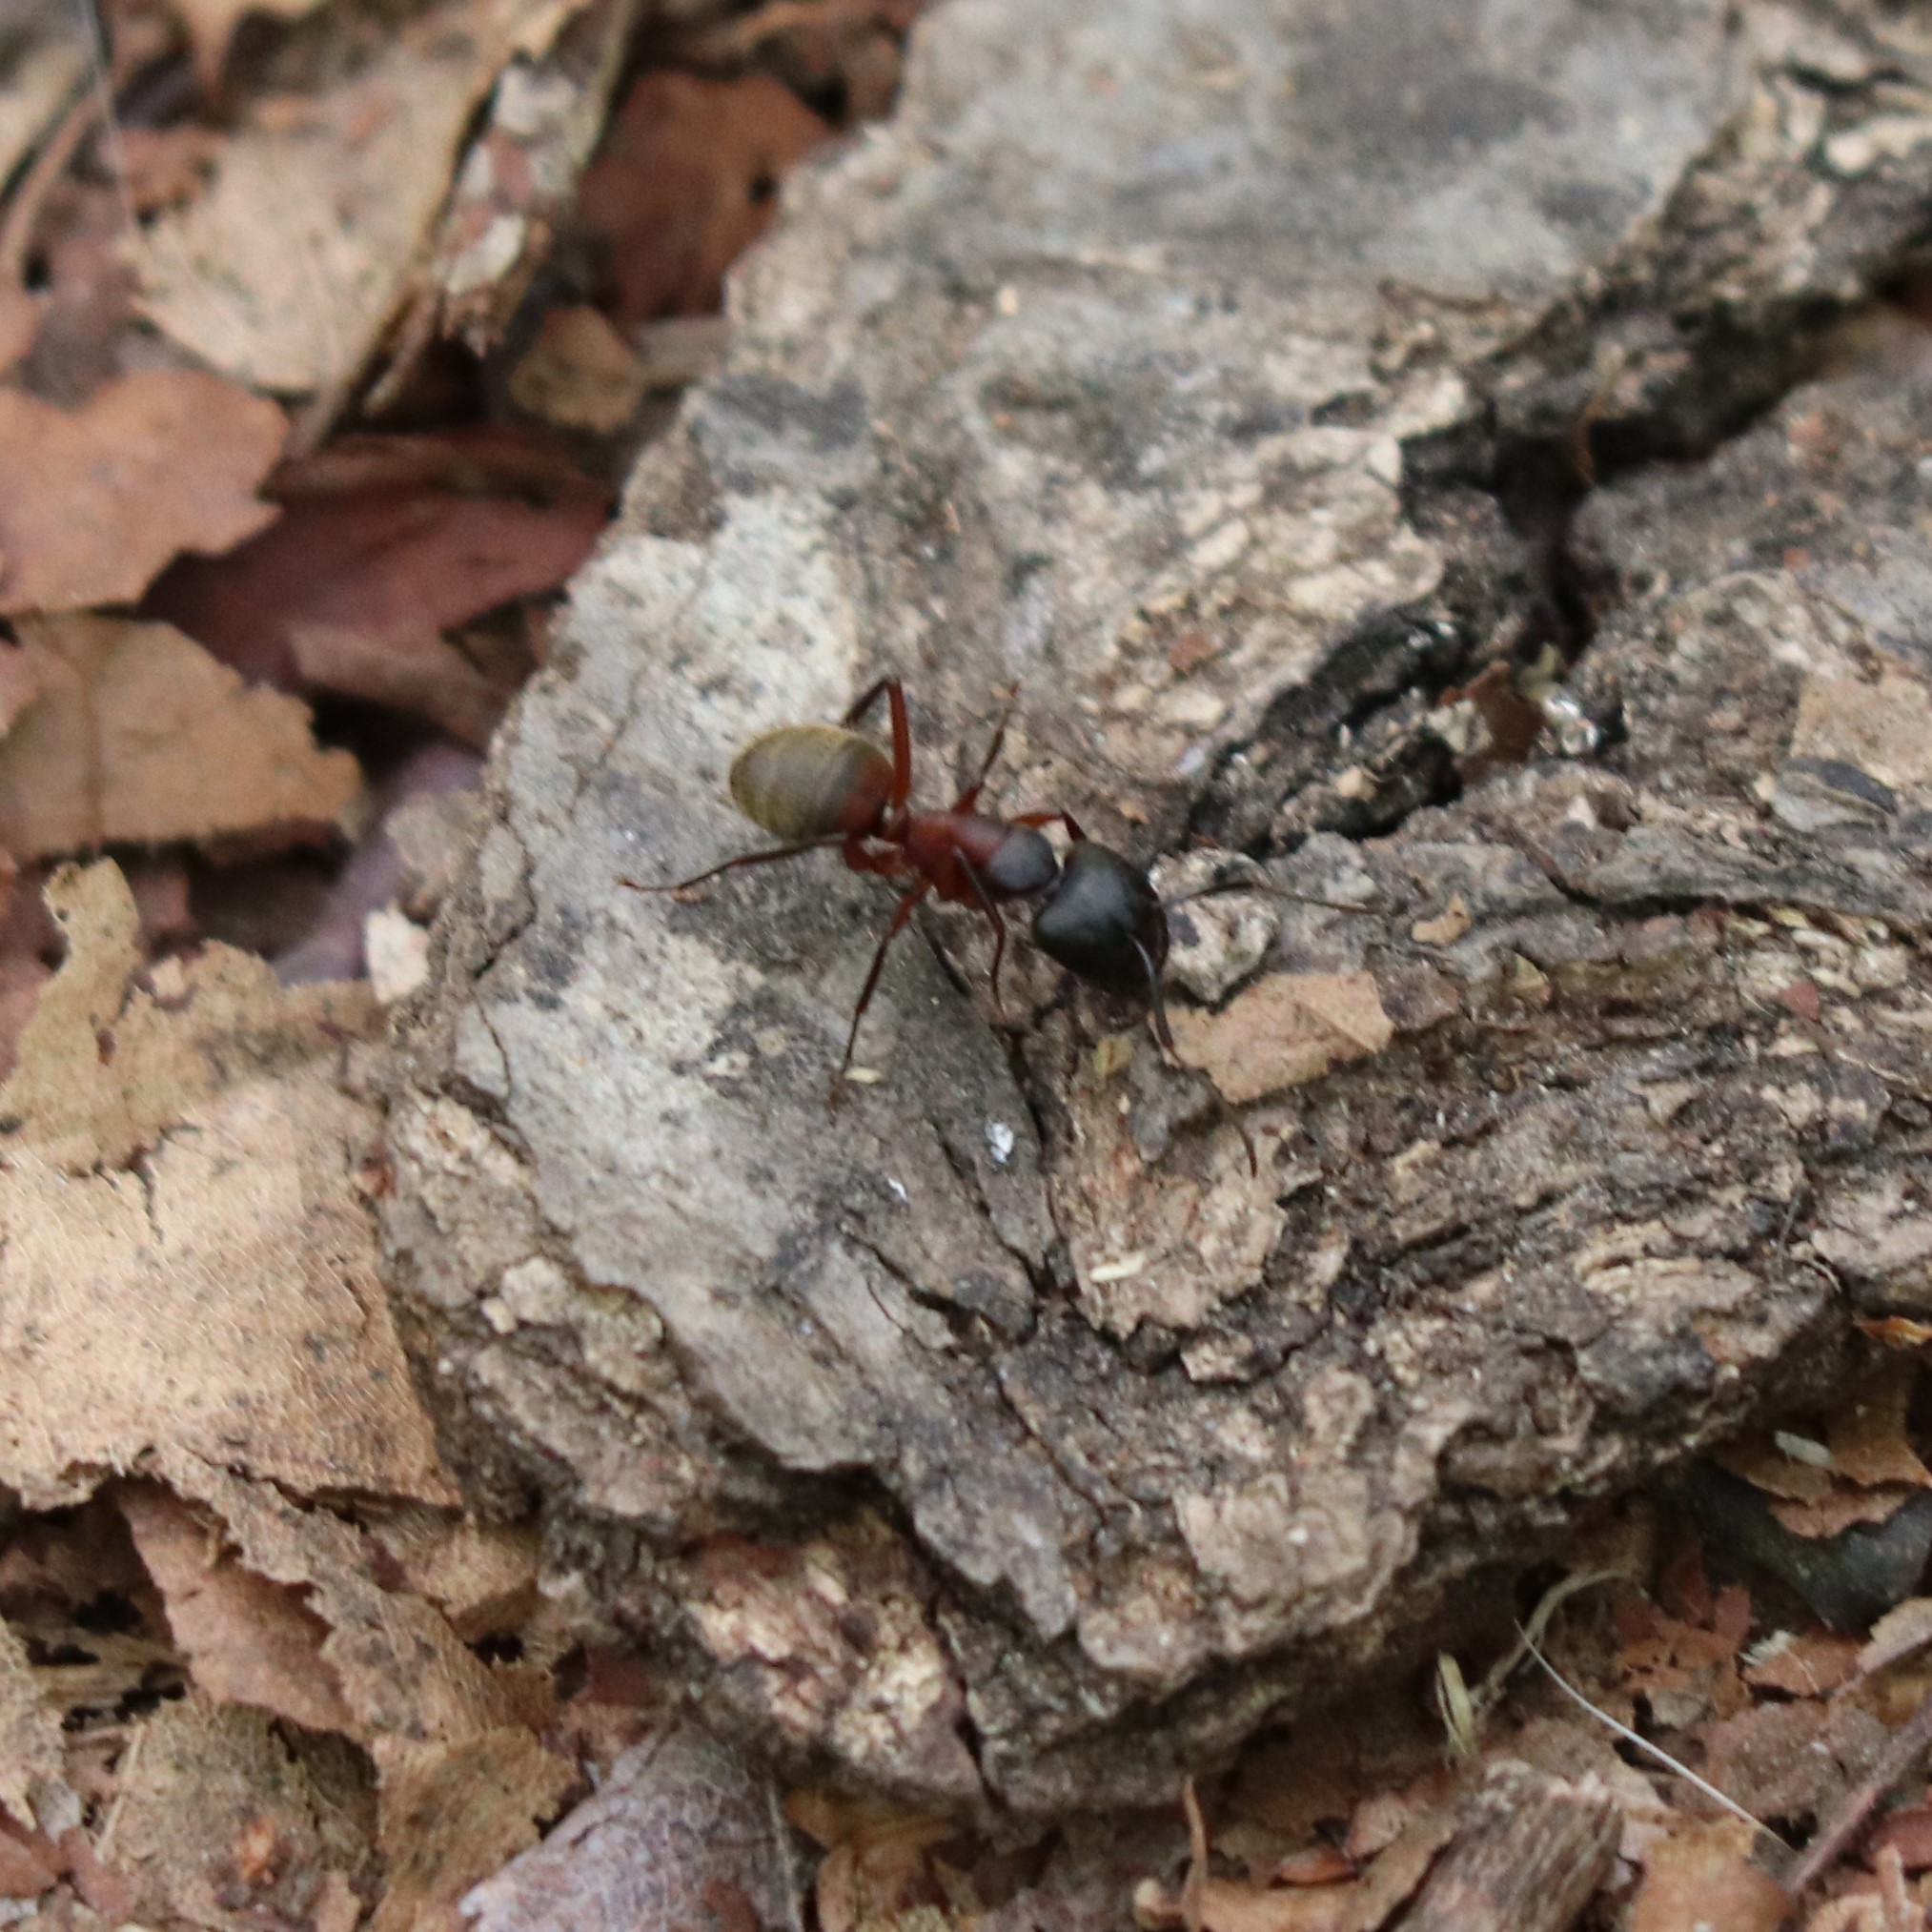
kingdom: Animalia
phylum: Arthropoda
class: Insecta
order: Hymenoptera
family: Formicidae
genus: Camponotus
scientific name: Camponotus chromaiodes
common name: Red carpenter ant
